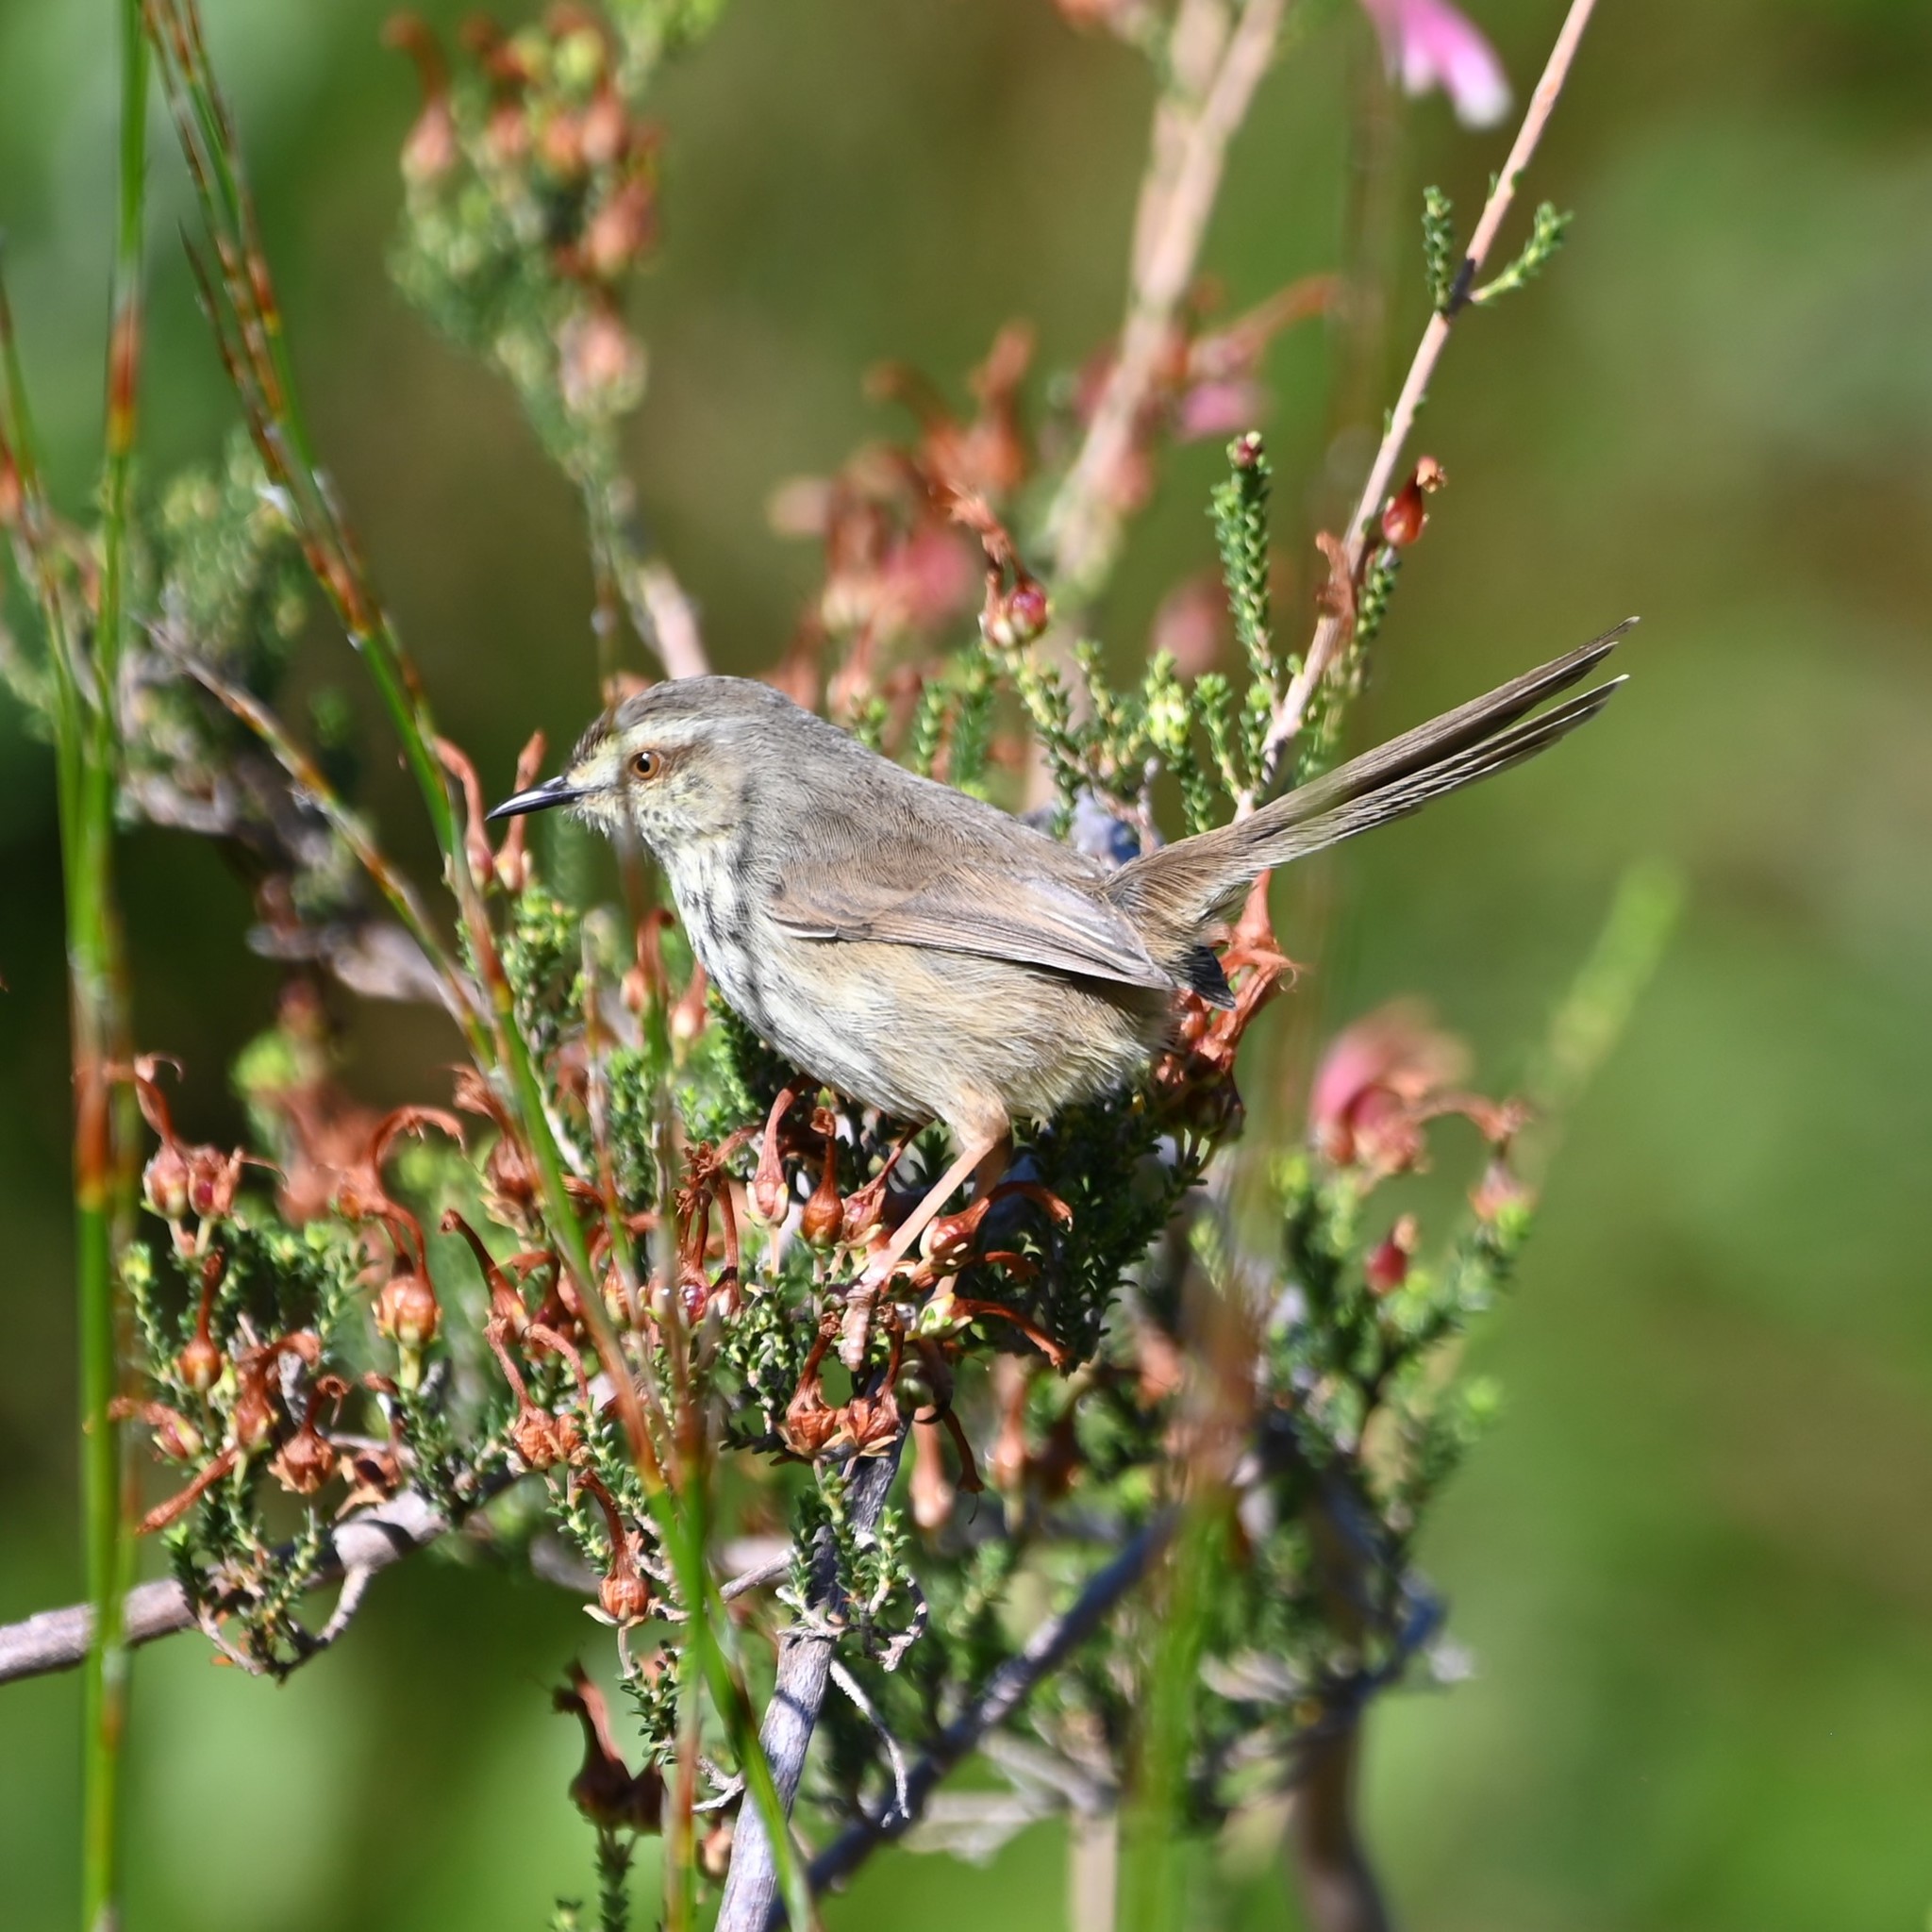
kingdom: Animalia
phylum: Chordata
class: Aves
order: Passeriformes
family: Cisticolidae
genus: Prinia
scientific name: Prinia maculosa
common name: Karoo prinia
